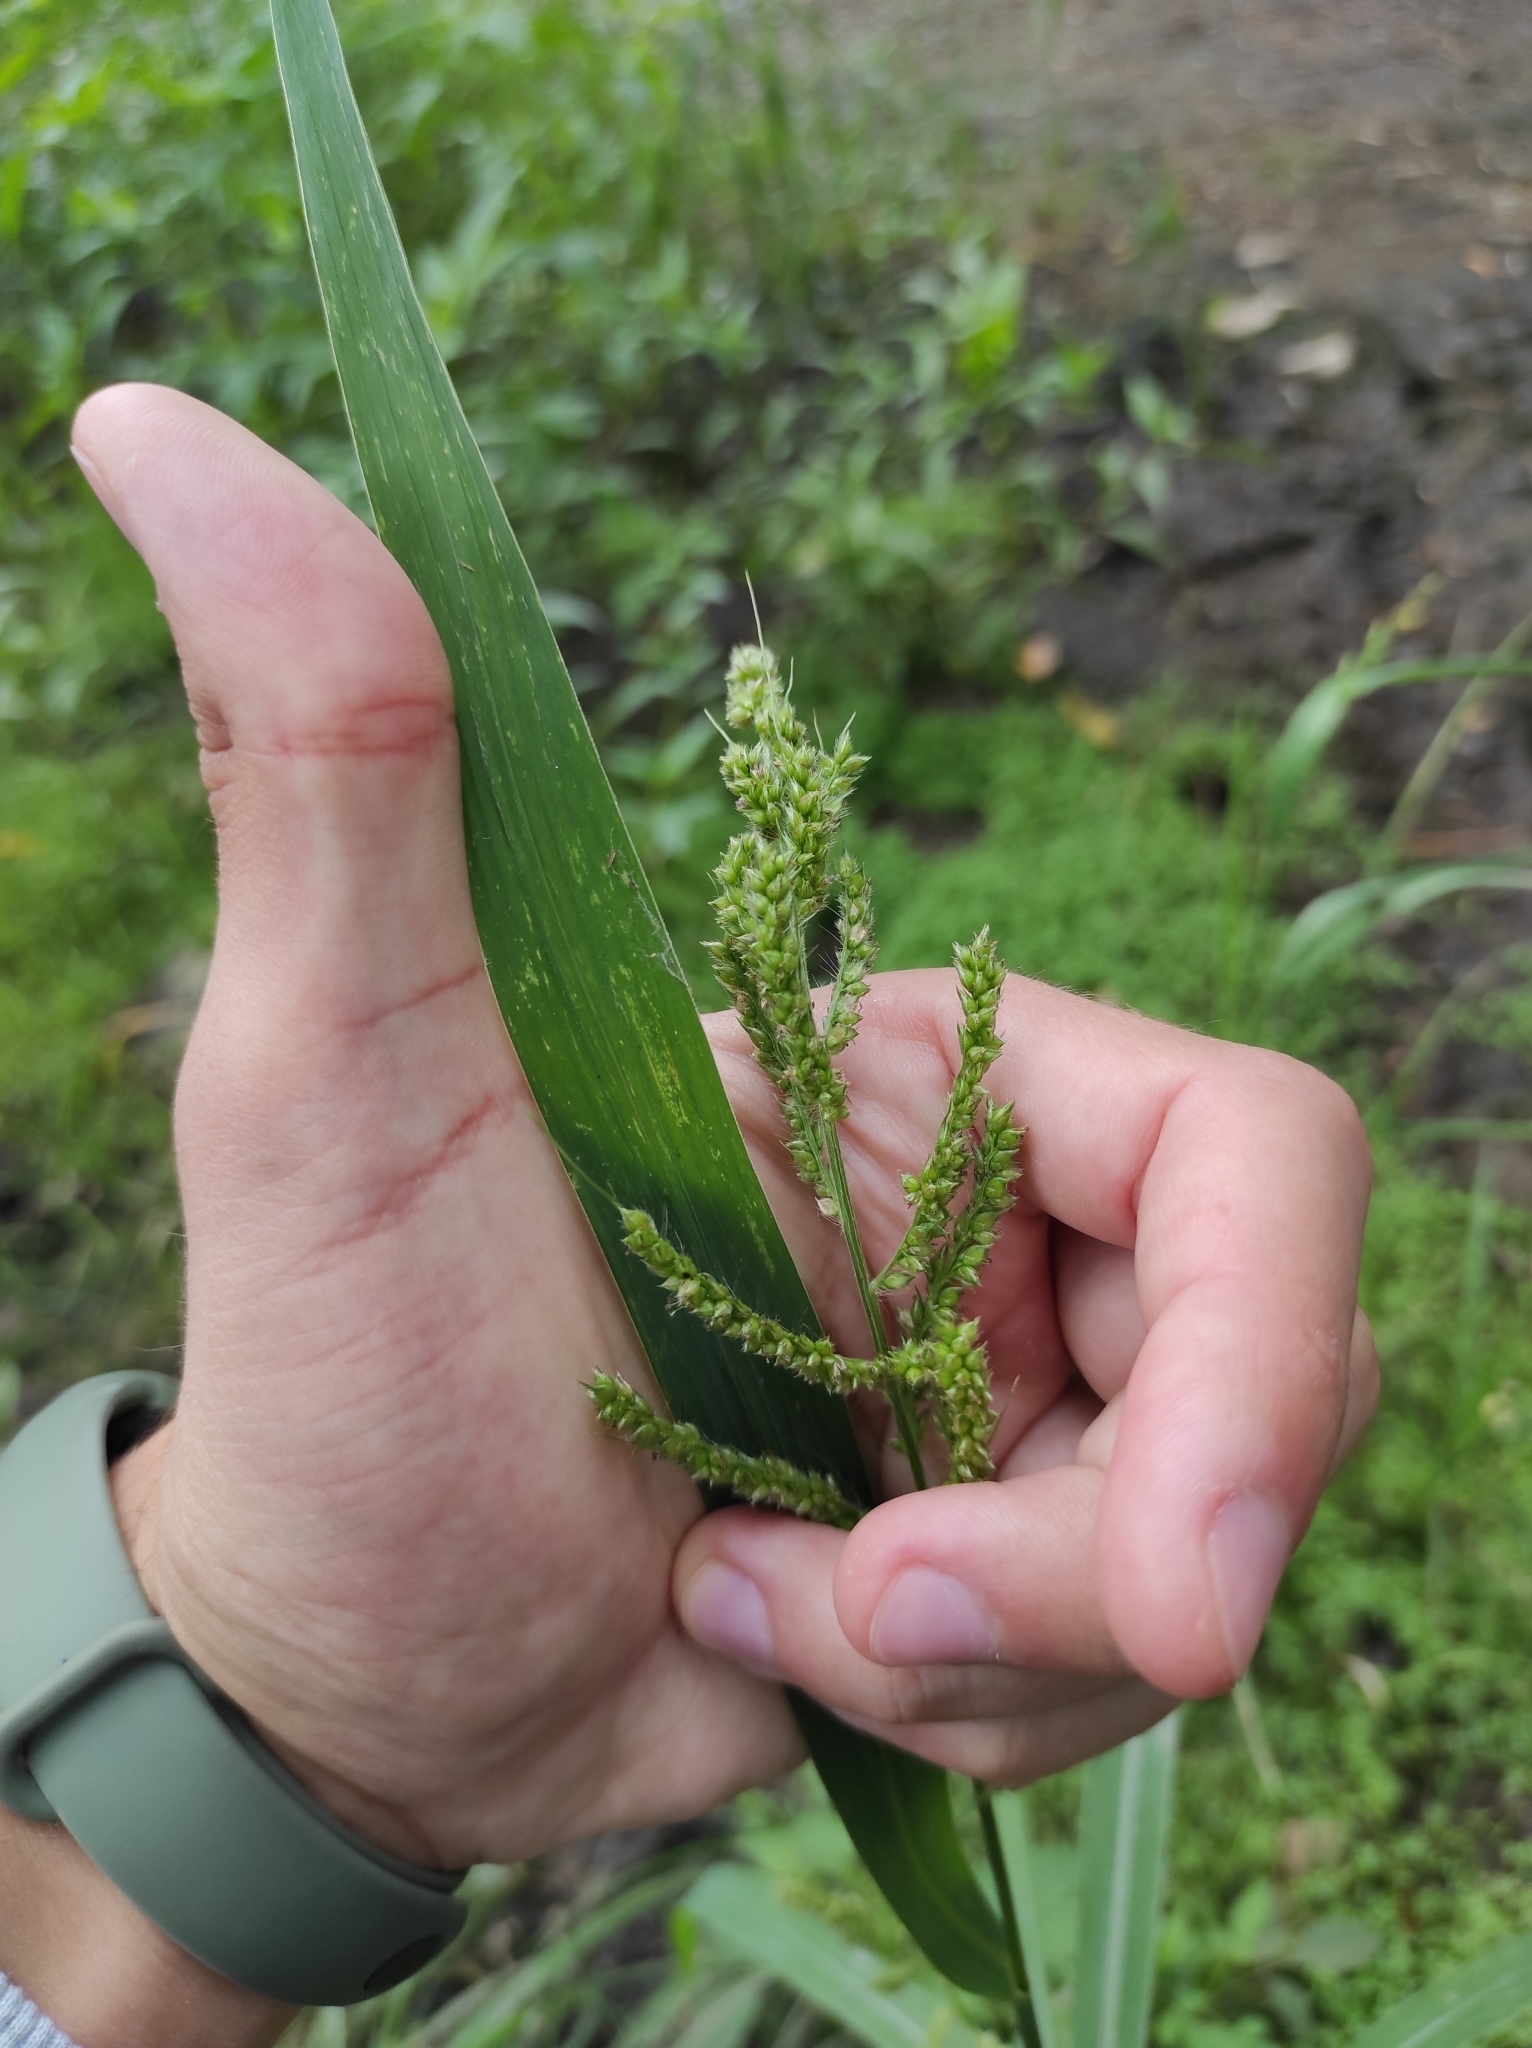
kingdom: Plantae
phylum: Tracheophyta
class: Liliopsida
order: Poales
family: Poaceae
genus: Echinochloa
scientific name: Echinochloa crus-galli
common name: Cockspur
